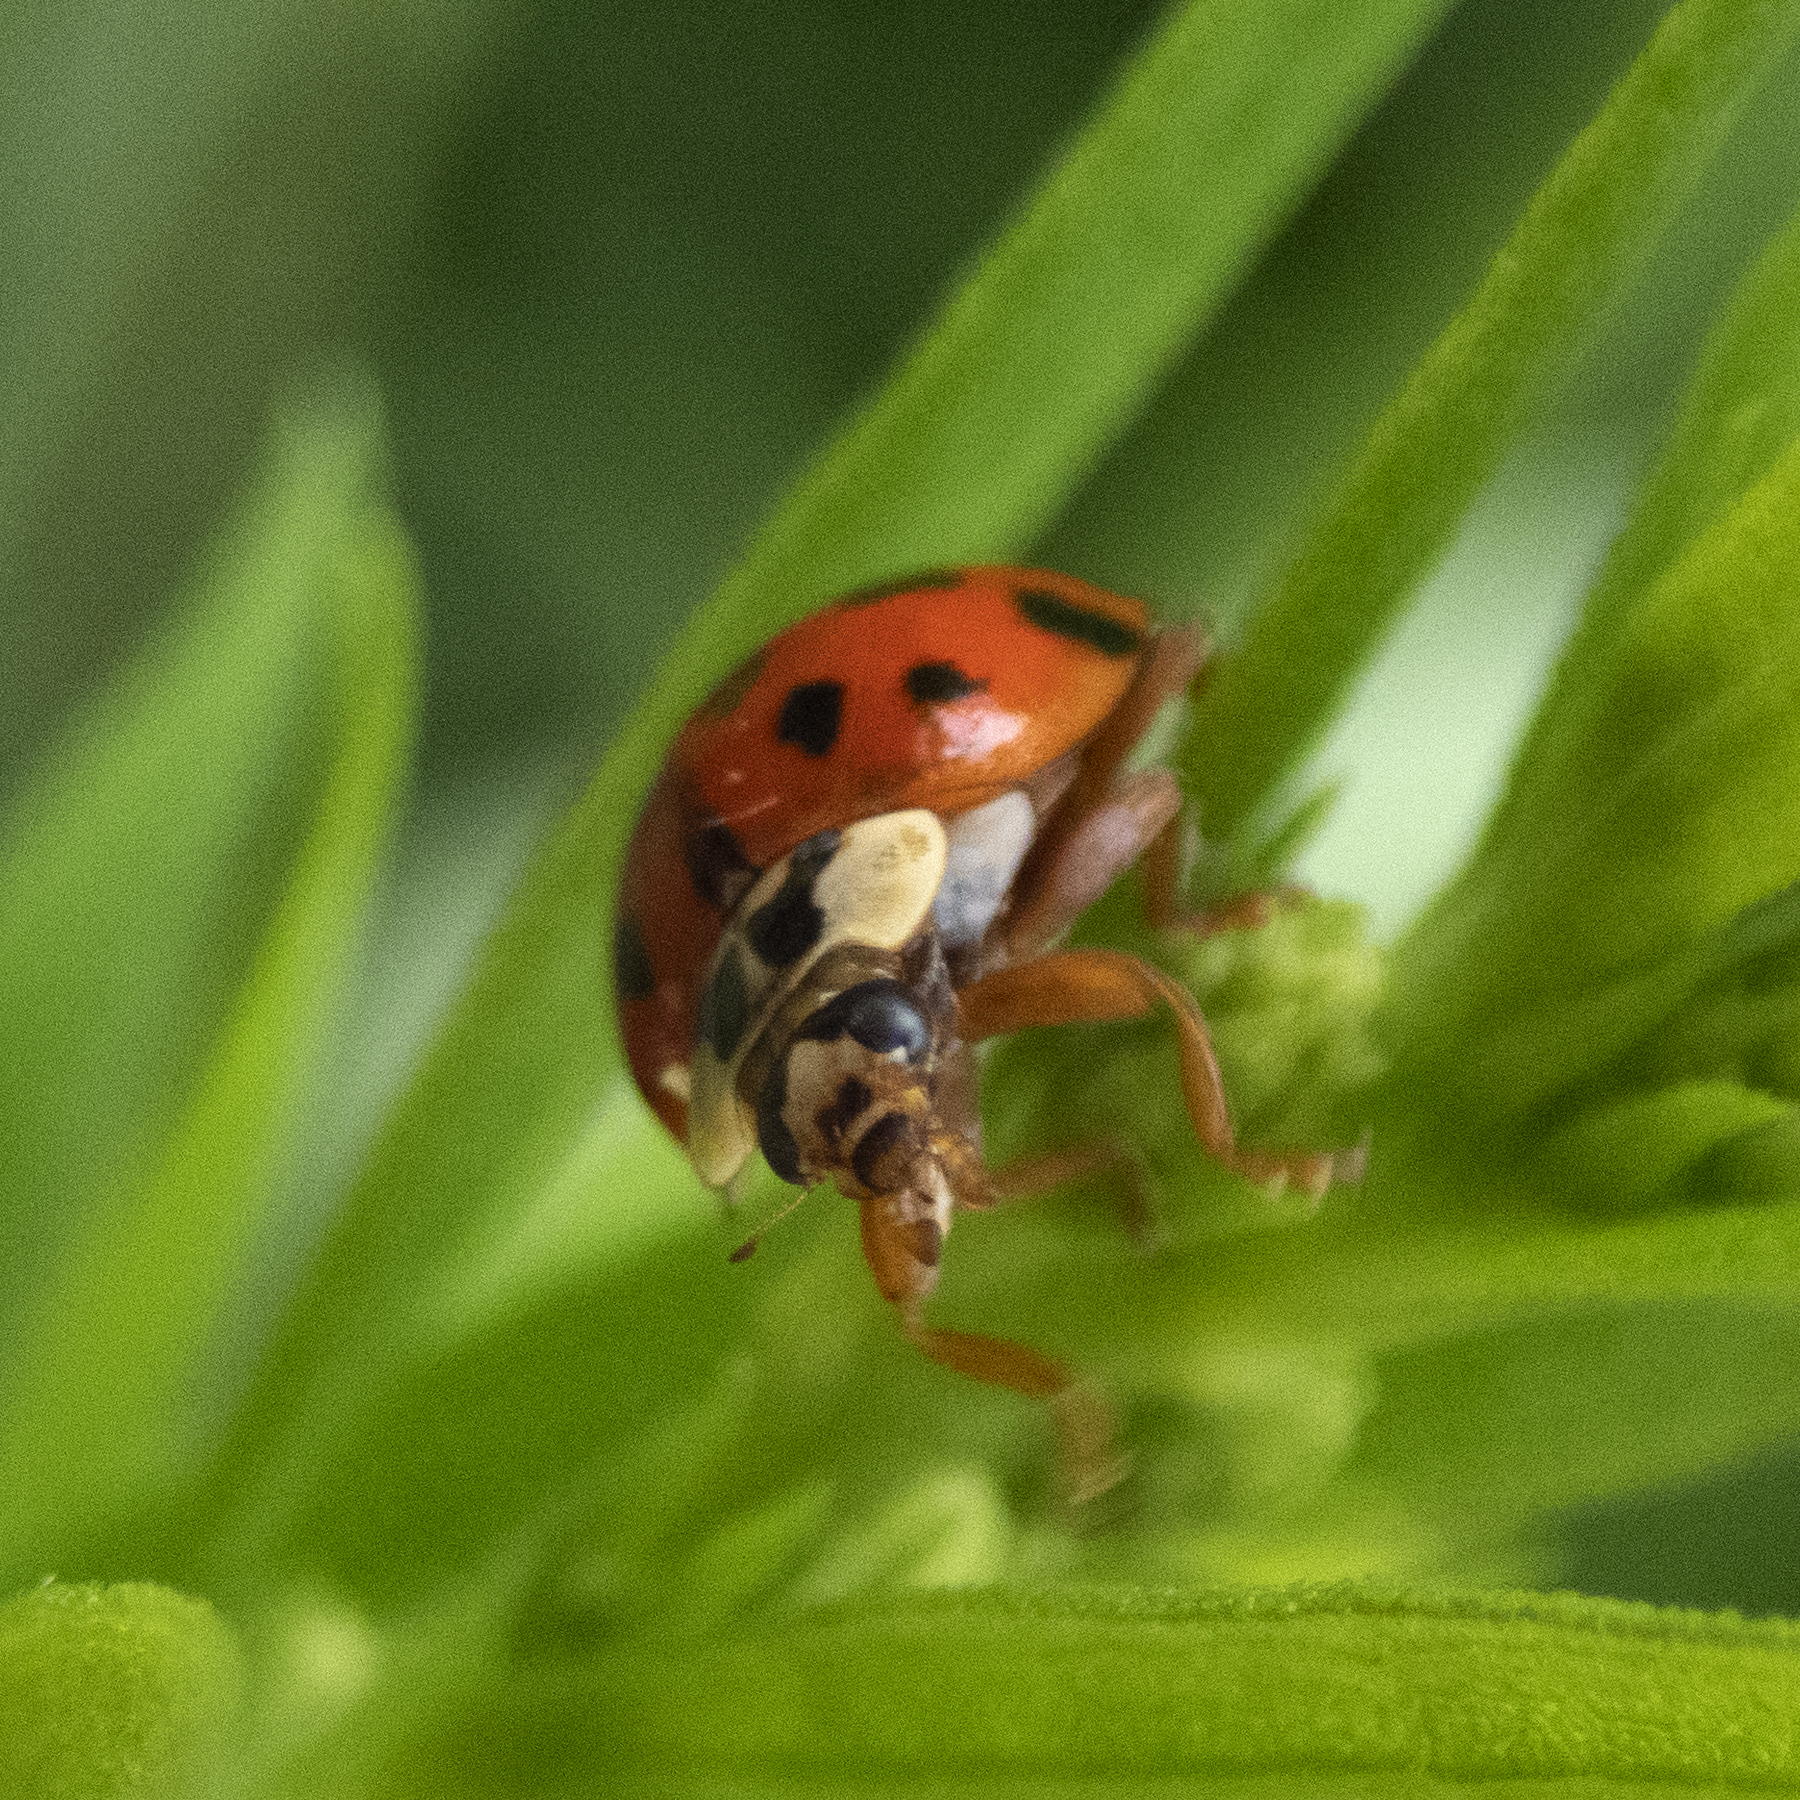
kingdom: Animalia
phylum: Arthropoda
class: Insecta
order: Coleoptera
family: Coccinellidae
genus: Harmonia
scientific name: Harmonia axyridis
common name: Harlequin ladybird
